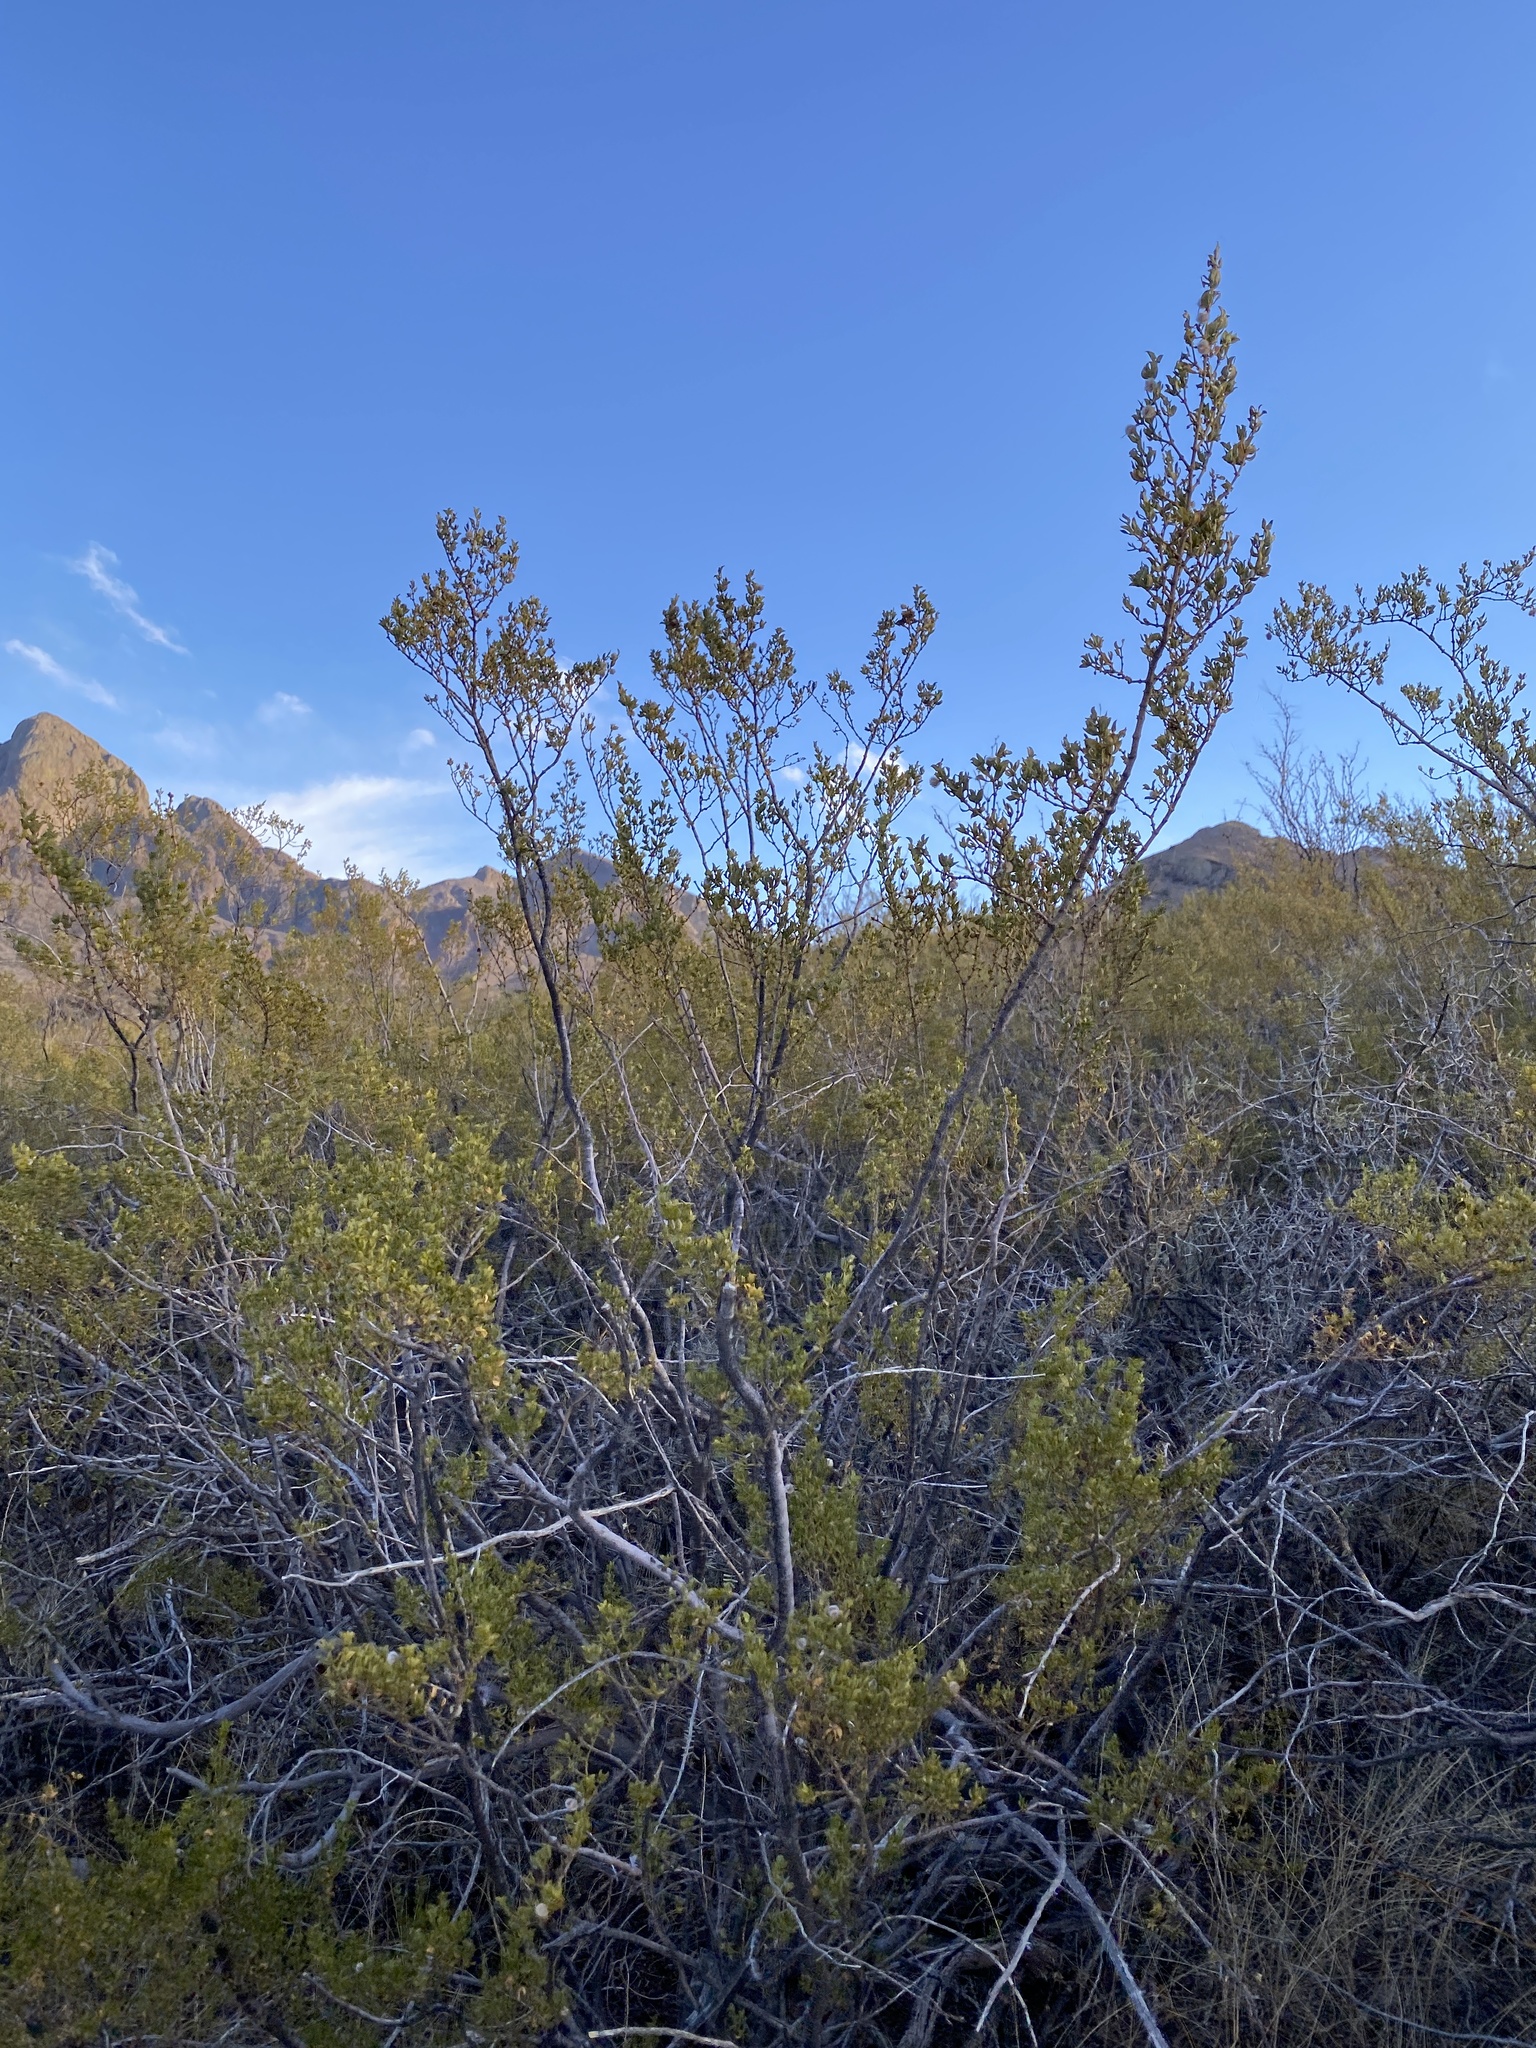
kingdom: Plantae
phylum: Tracheophyta
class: Magnoliopsida
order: Zygophyllales
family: Zygophyllaceae
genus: Larrea
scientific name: Larrea tridentata
